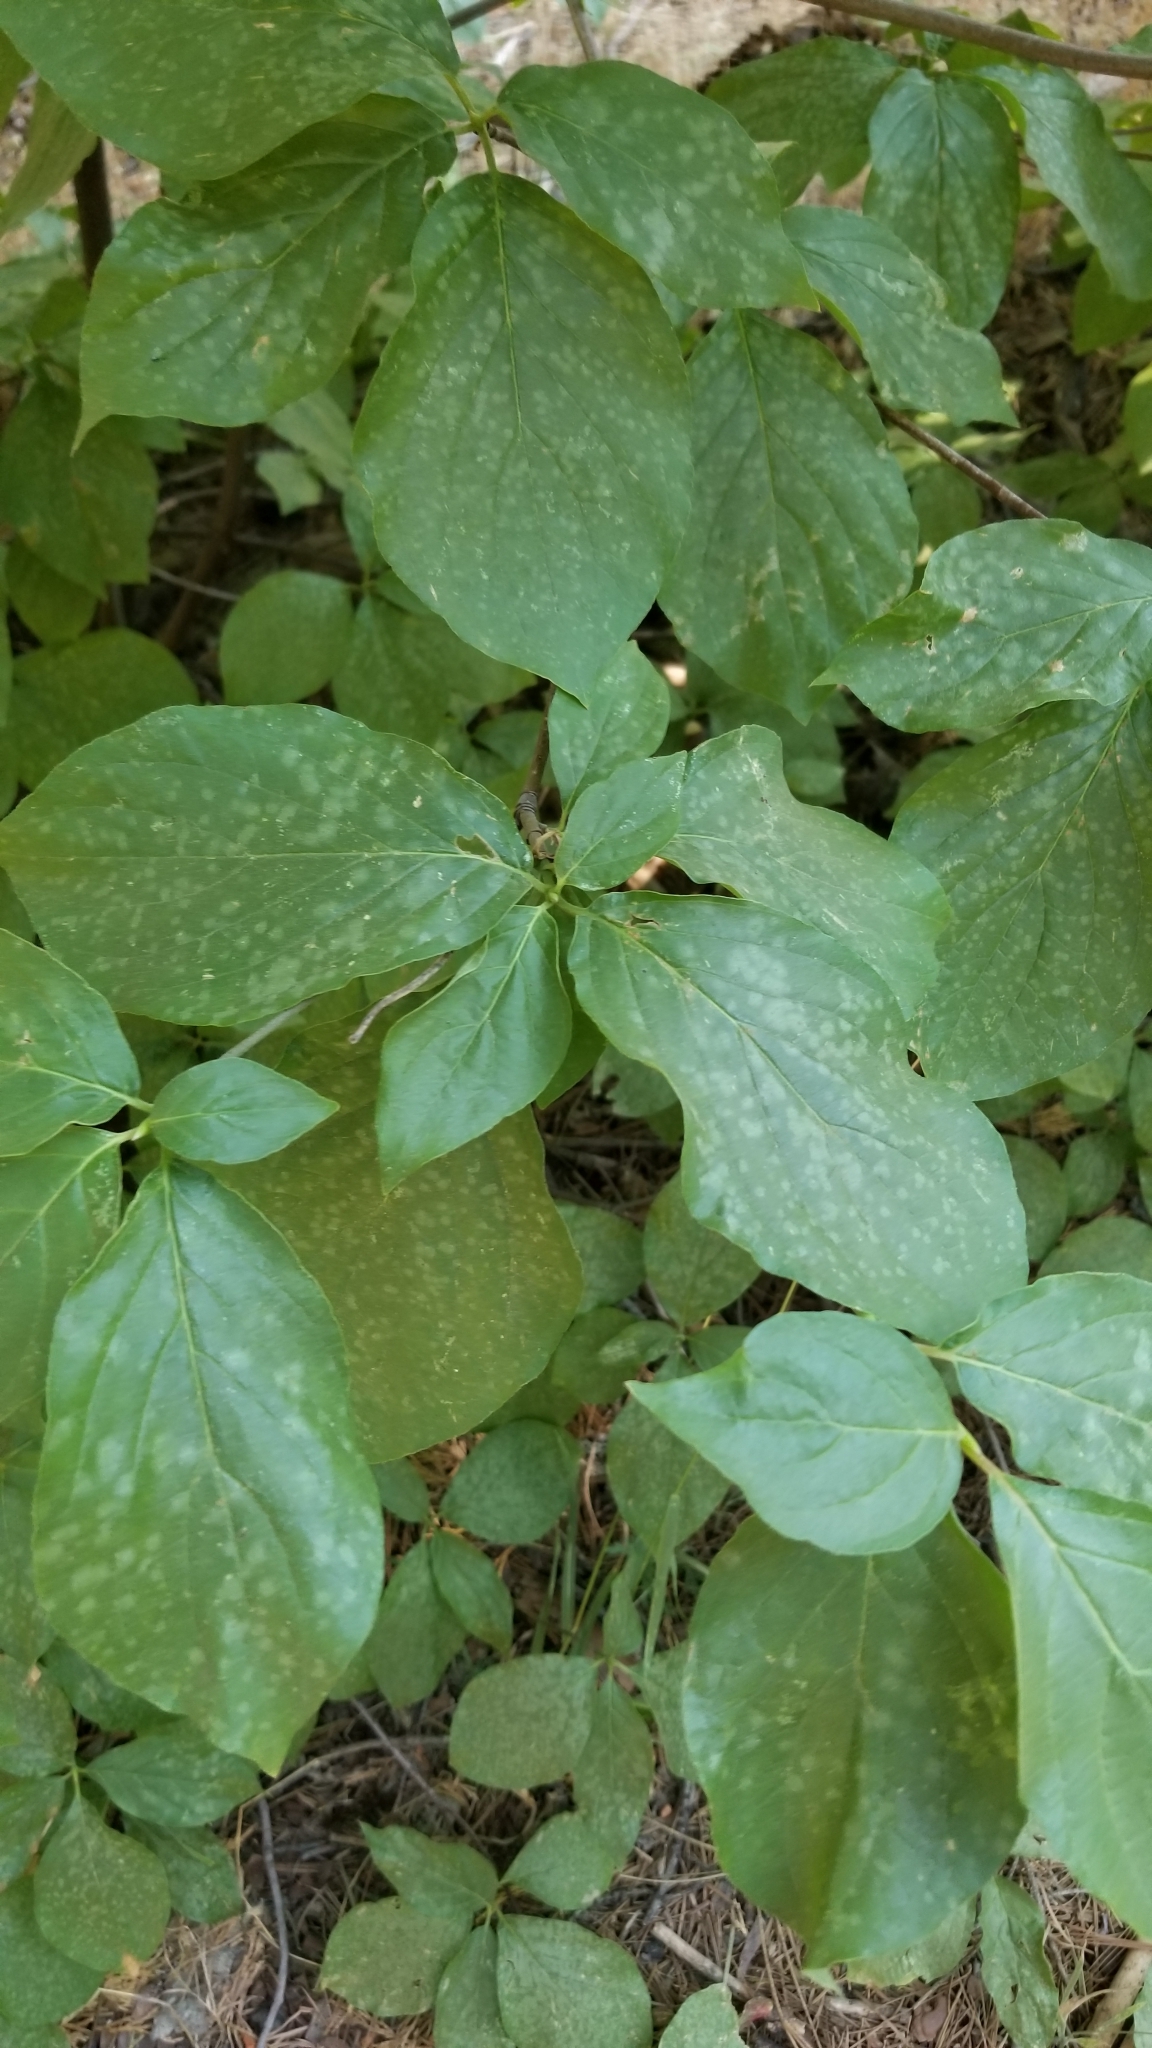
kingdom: Plantae
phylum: Tracheophyta
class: Magnoliopsida
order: Cornales
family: Cornaceae
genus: Cornus
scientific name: Cornus nuttallii
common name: Pacific dogwood
